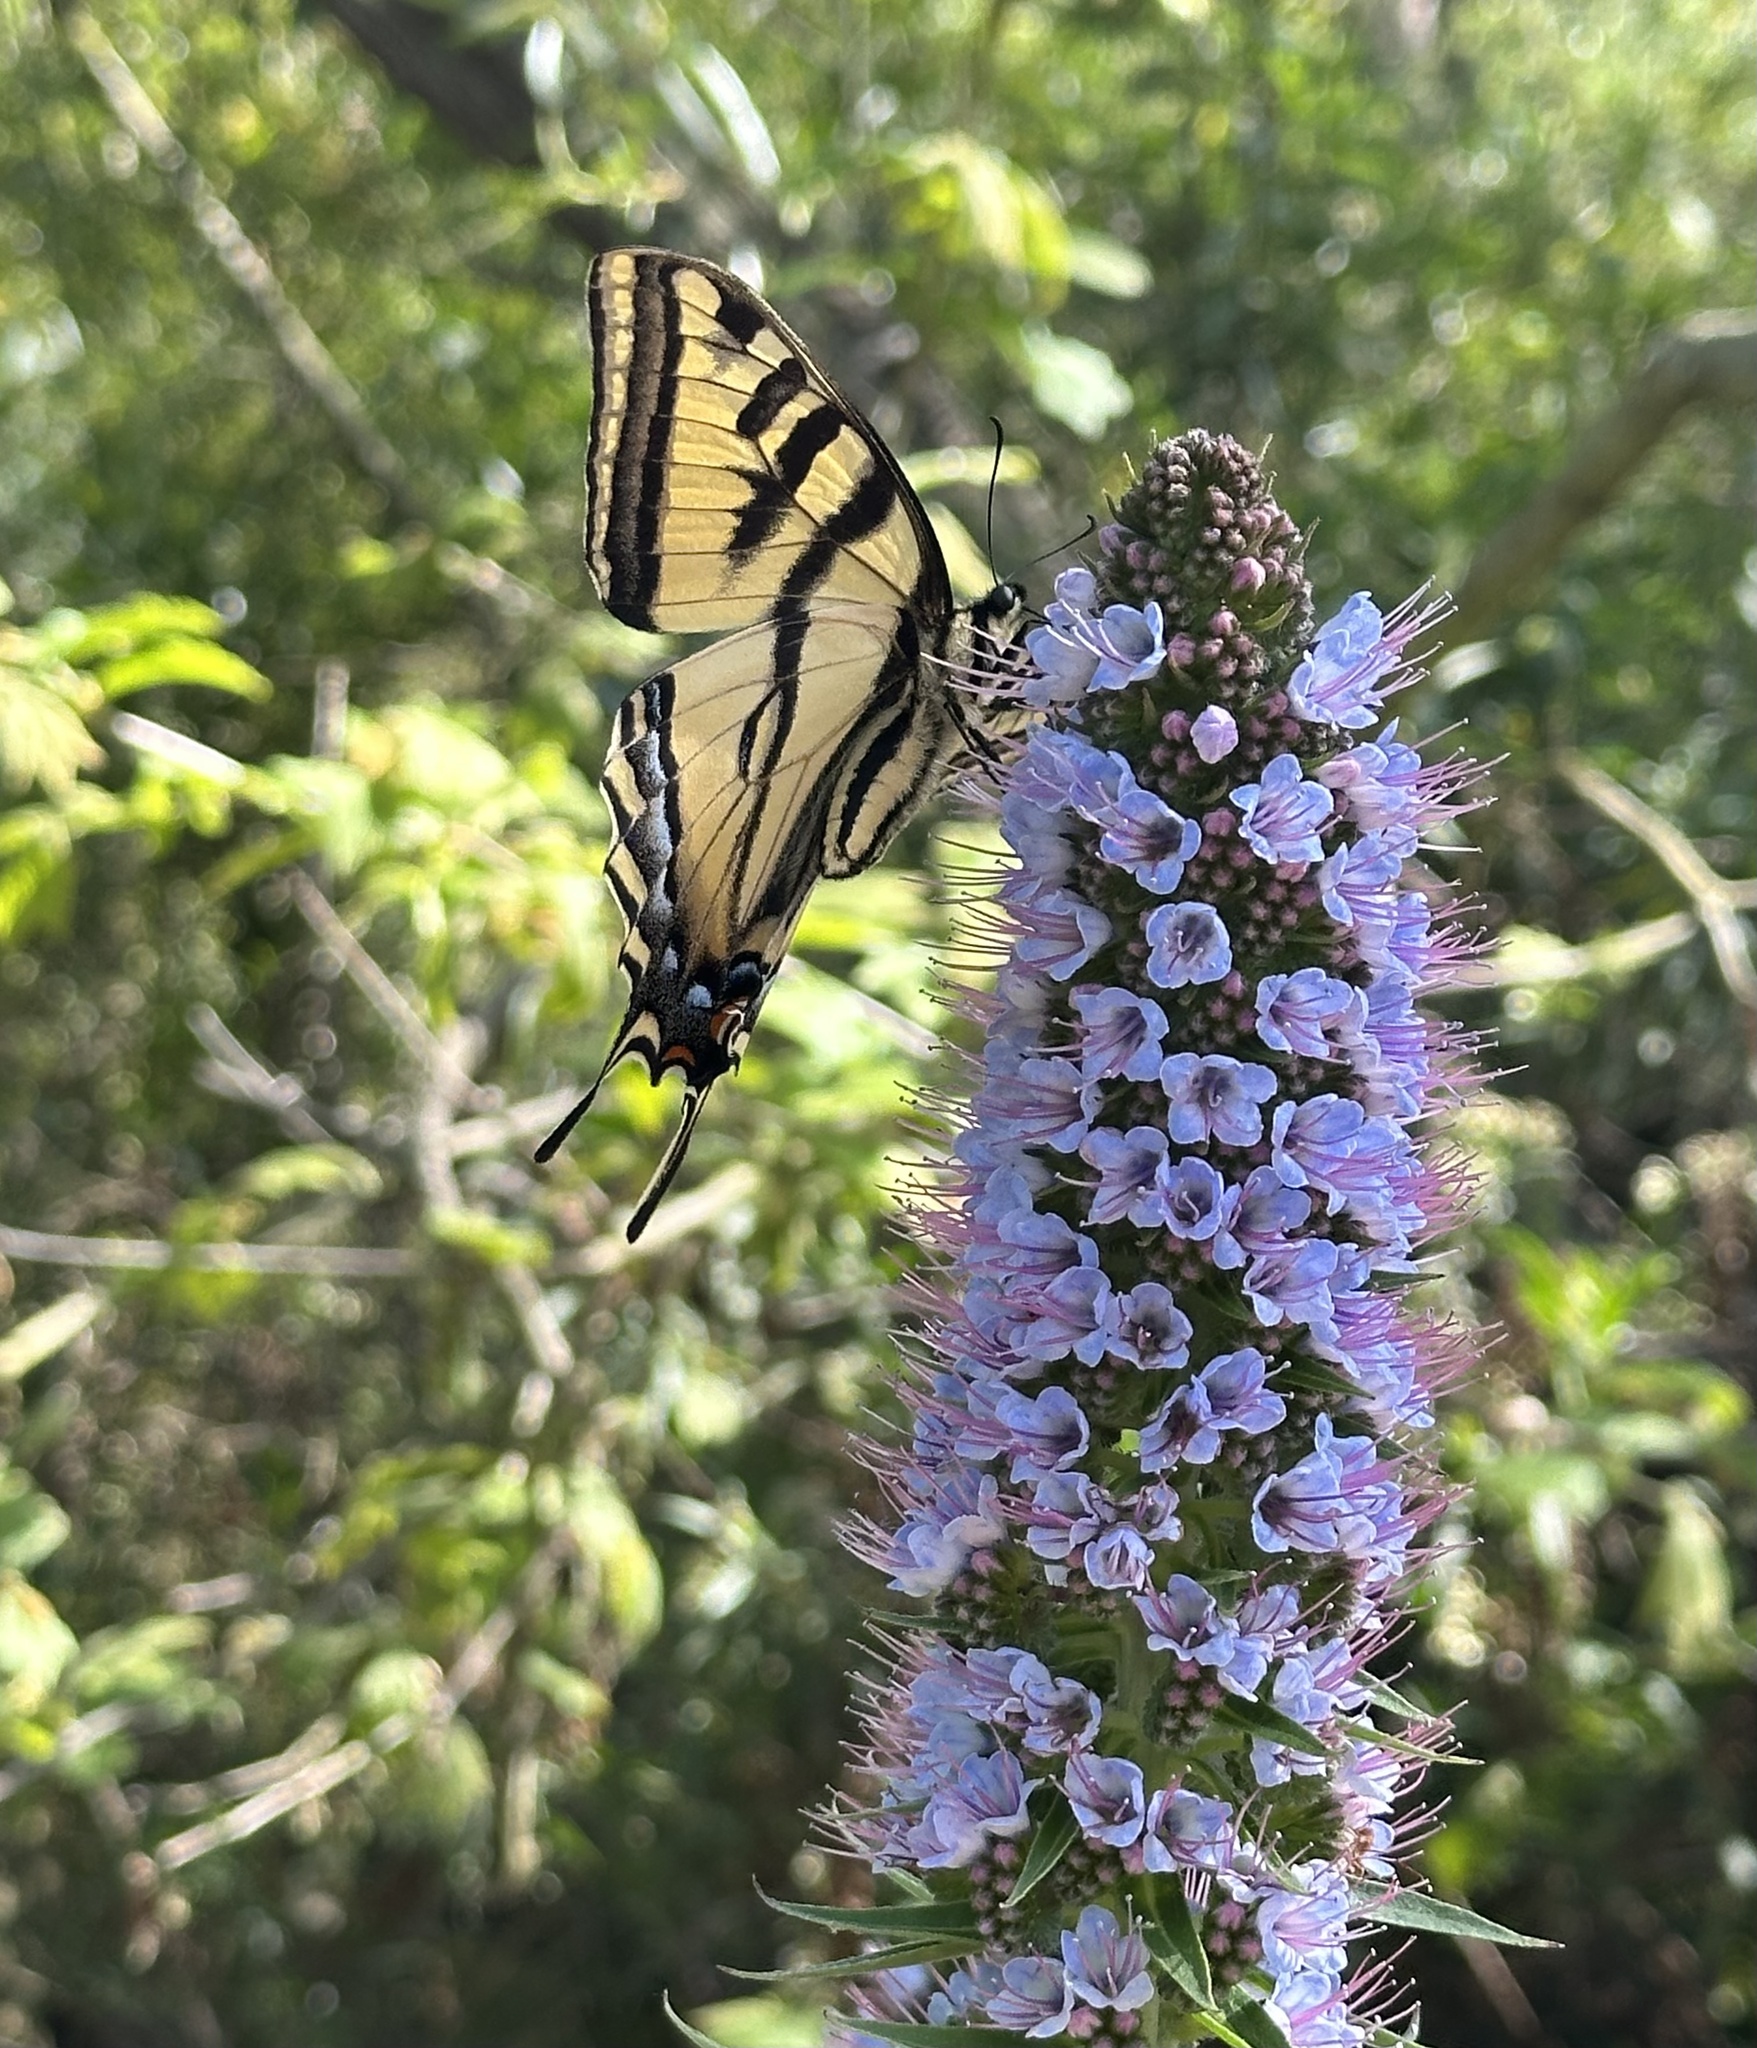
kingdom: Animalia
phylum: Arthropoda
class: Insecta
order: Lepidoptera
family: Papilionidae
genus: Papilio
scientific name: Papilio rutulus
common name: Western tiger swallowtail
